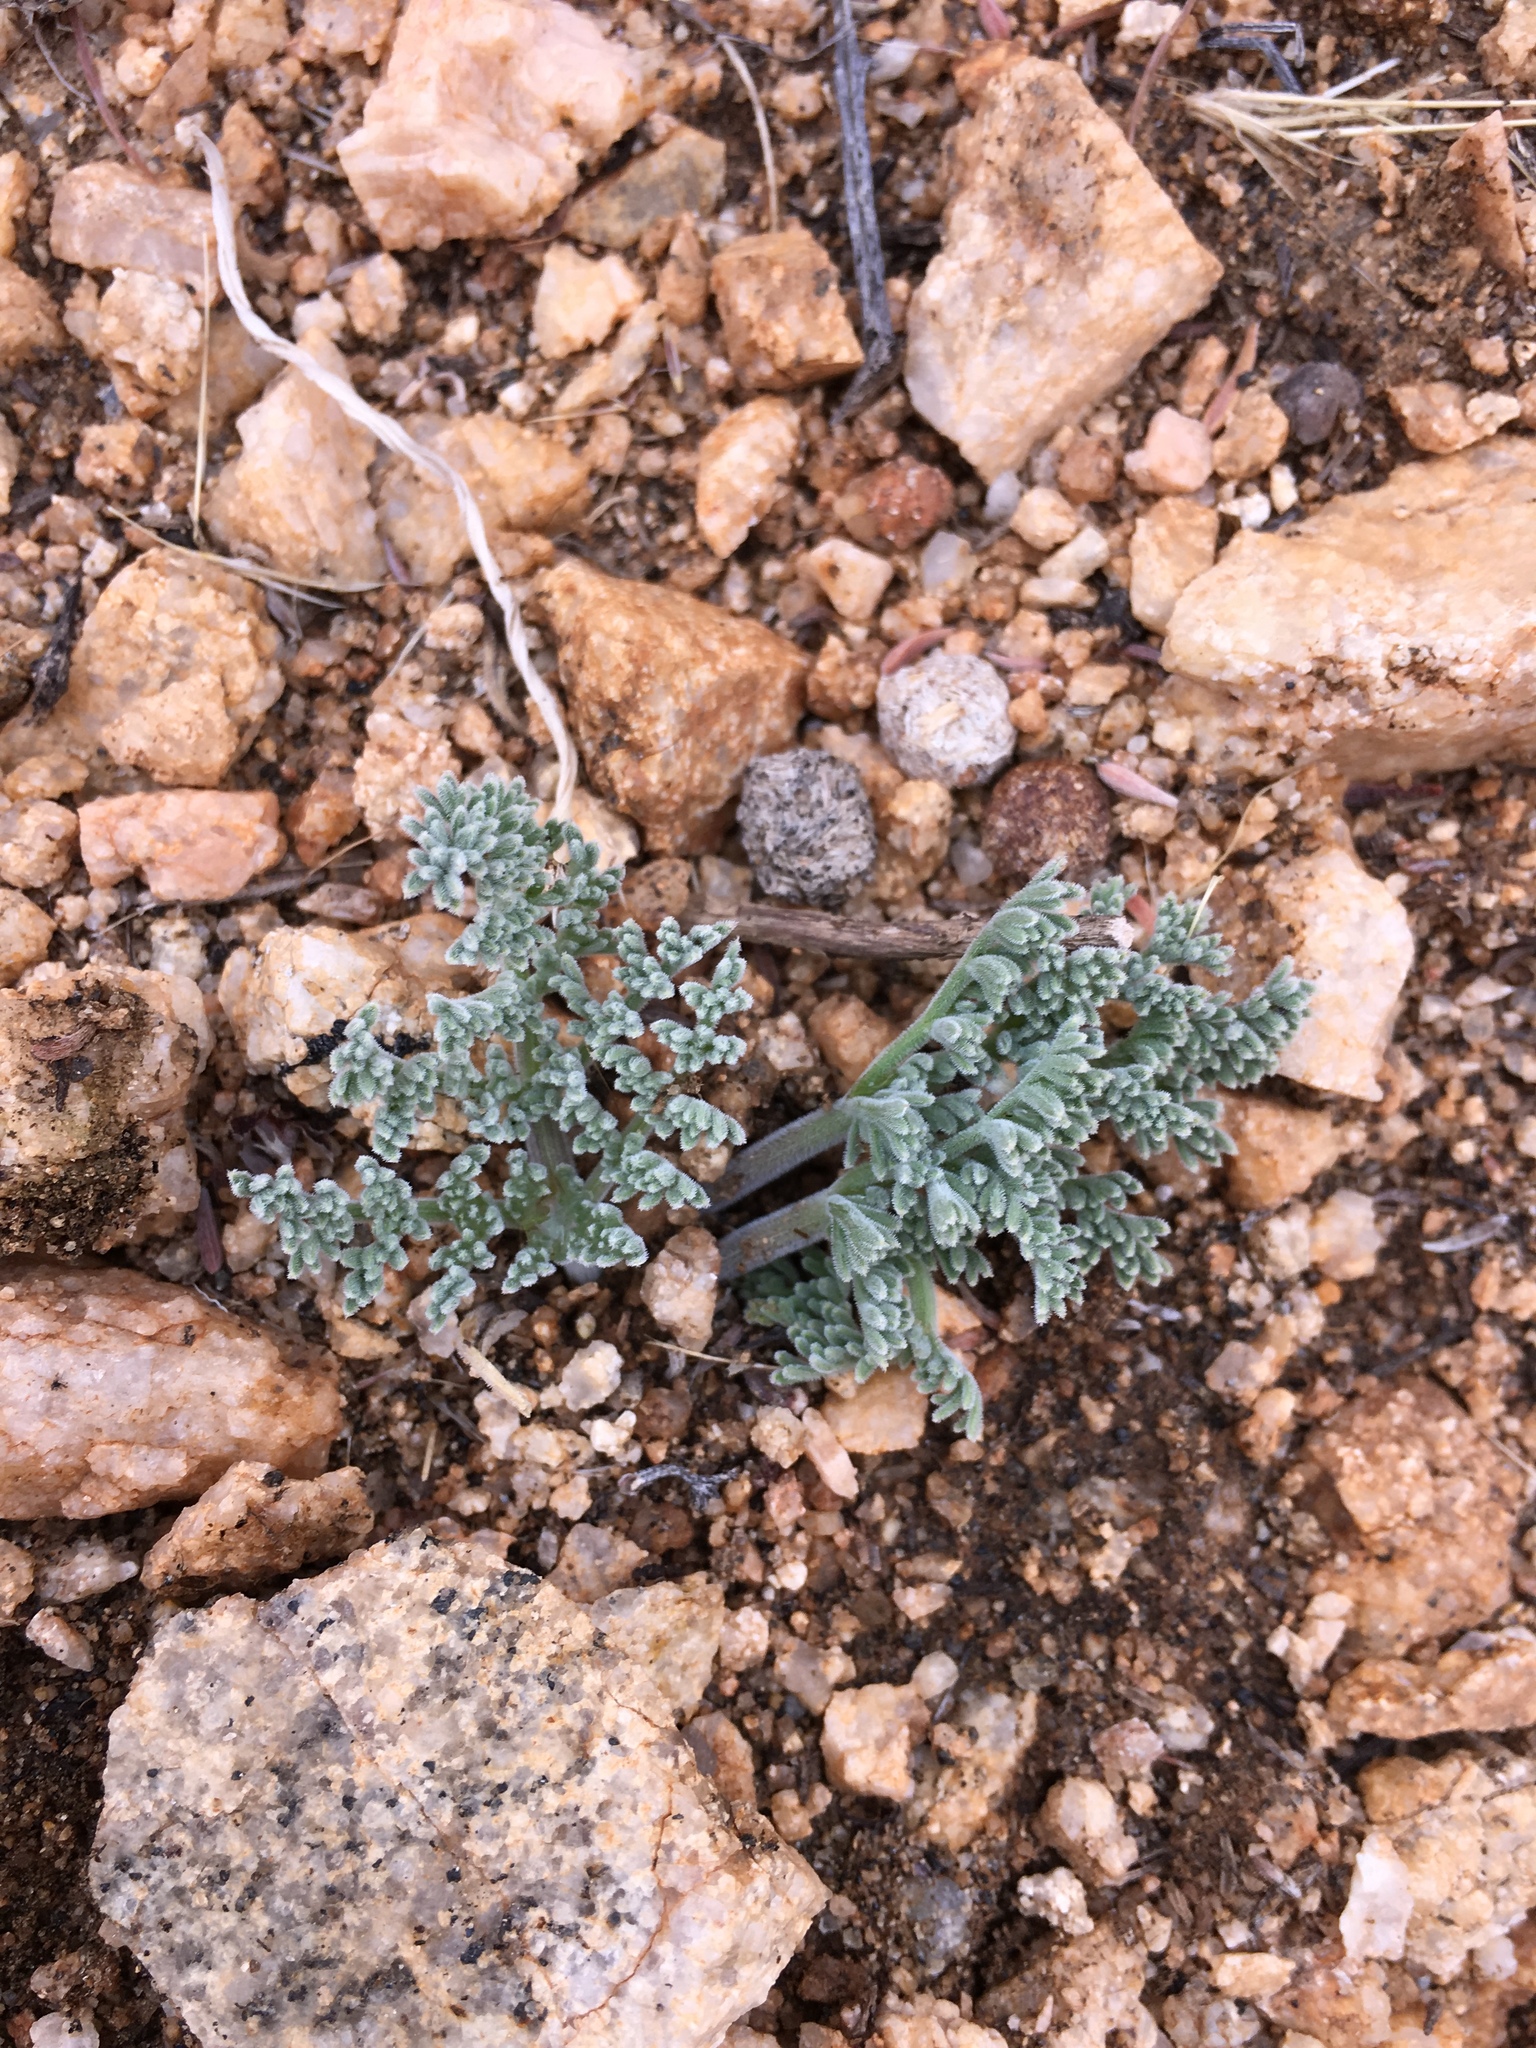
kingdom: Plantae
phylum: Tracheophyta
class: Magnoliopsida
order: Apiales
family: Apiaceae
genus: Lomatium
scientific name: Lomatium mohavense
